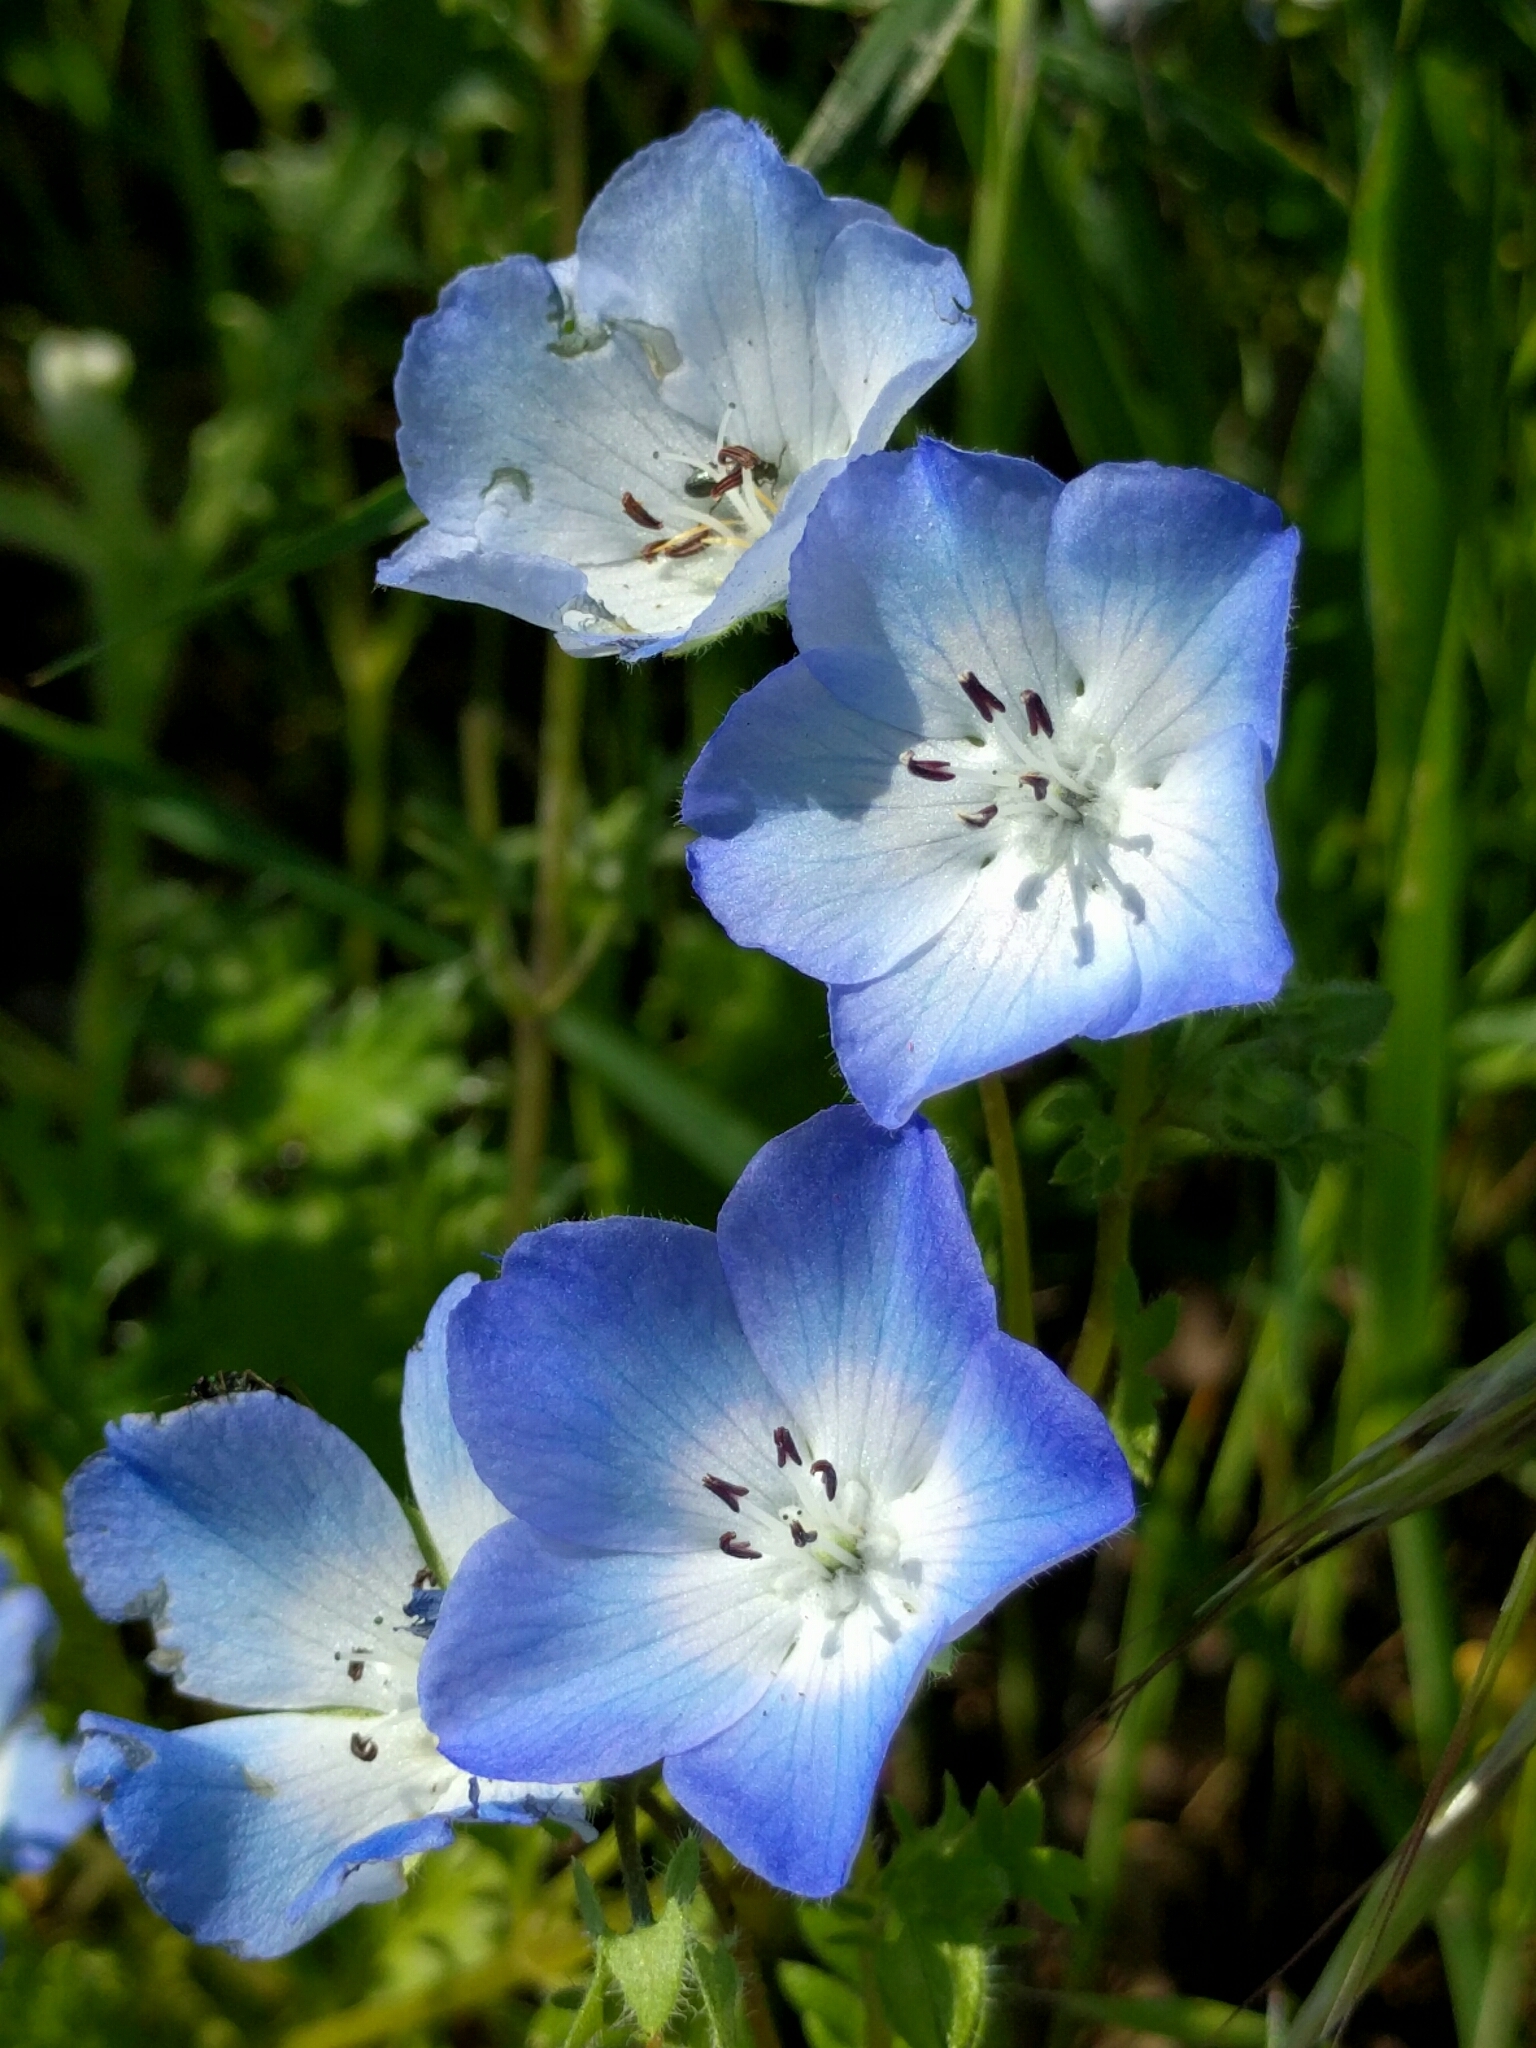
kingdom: Plantae
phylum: Tracheophyta
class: Magnoliopsida
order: Boraginales
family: Hydrophyllaceae
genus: Nemophila
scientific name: Nemophila menziesii
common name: Baby's-blue-eyes
